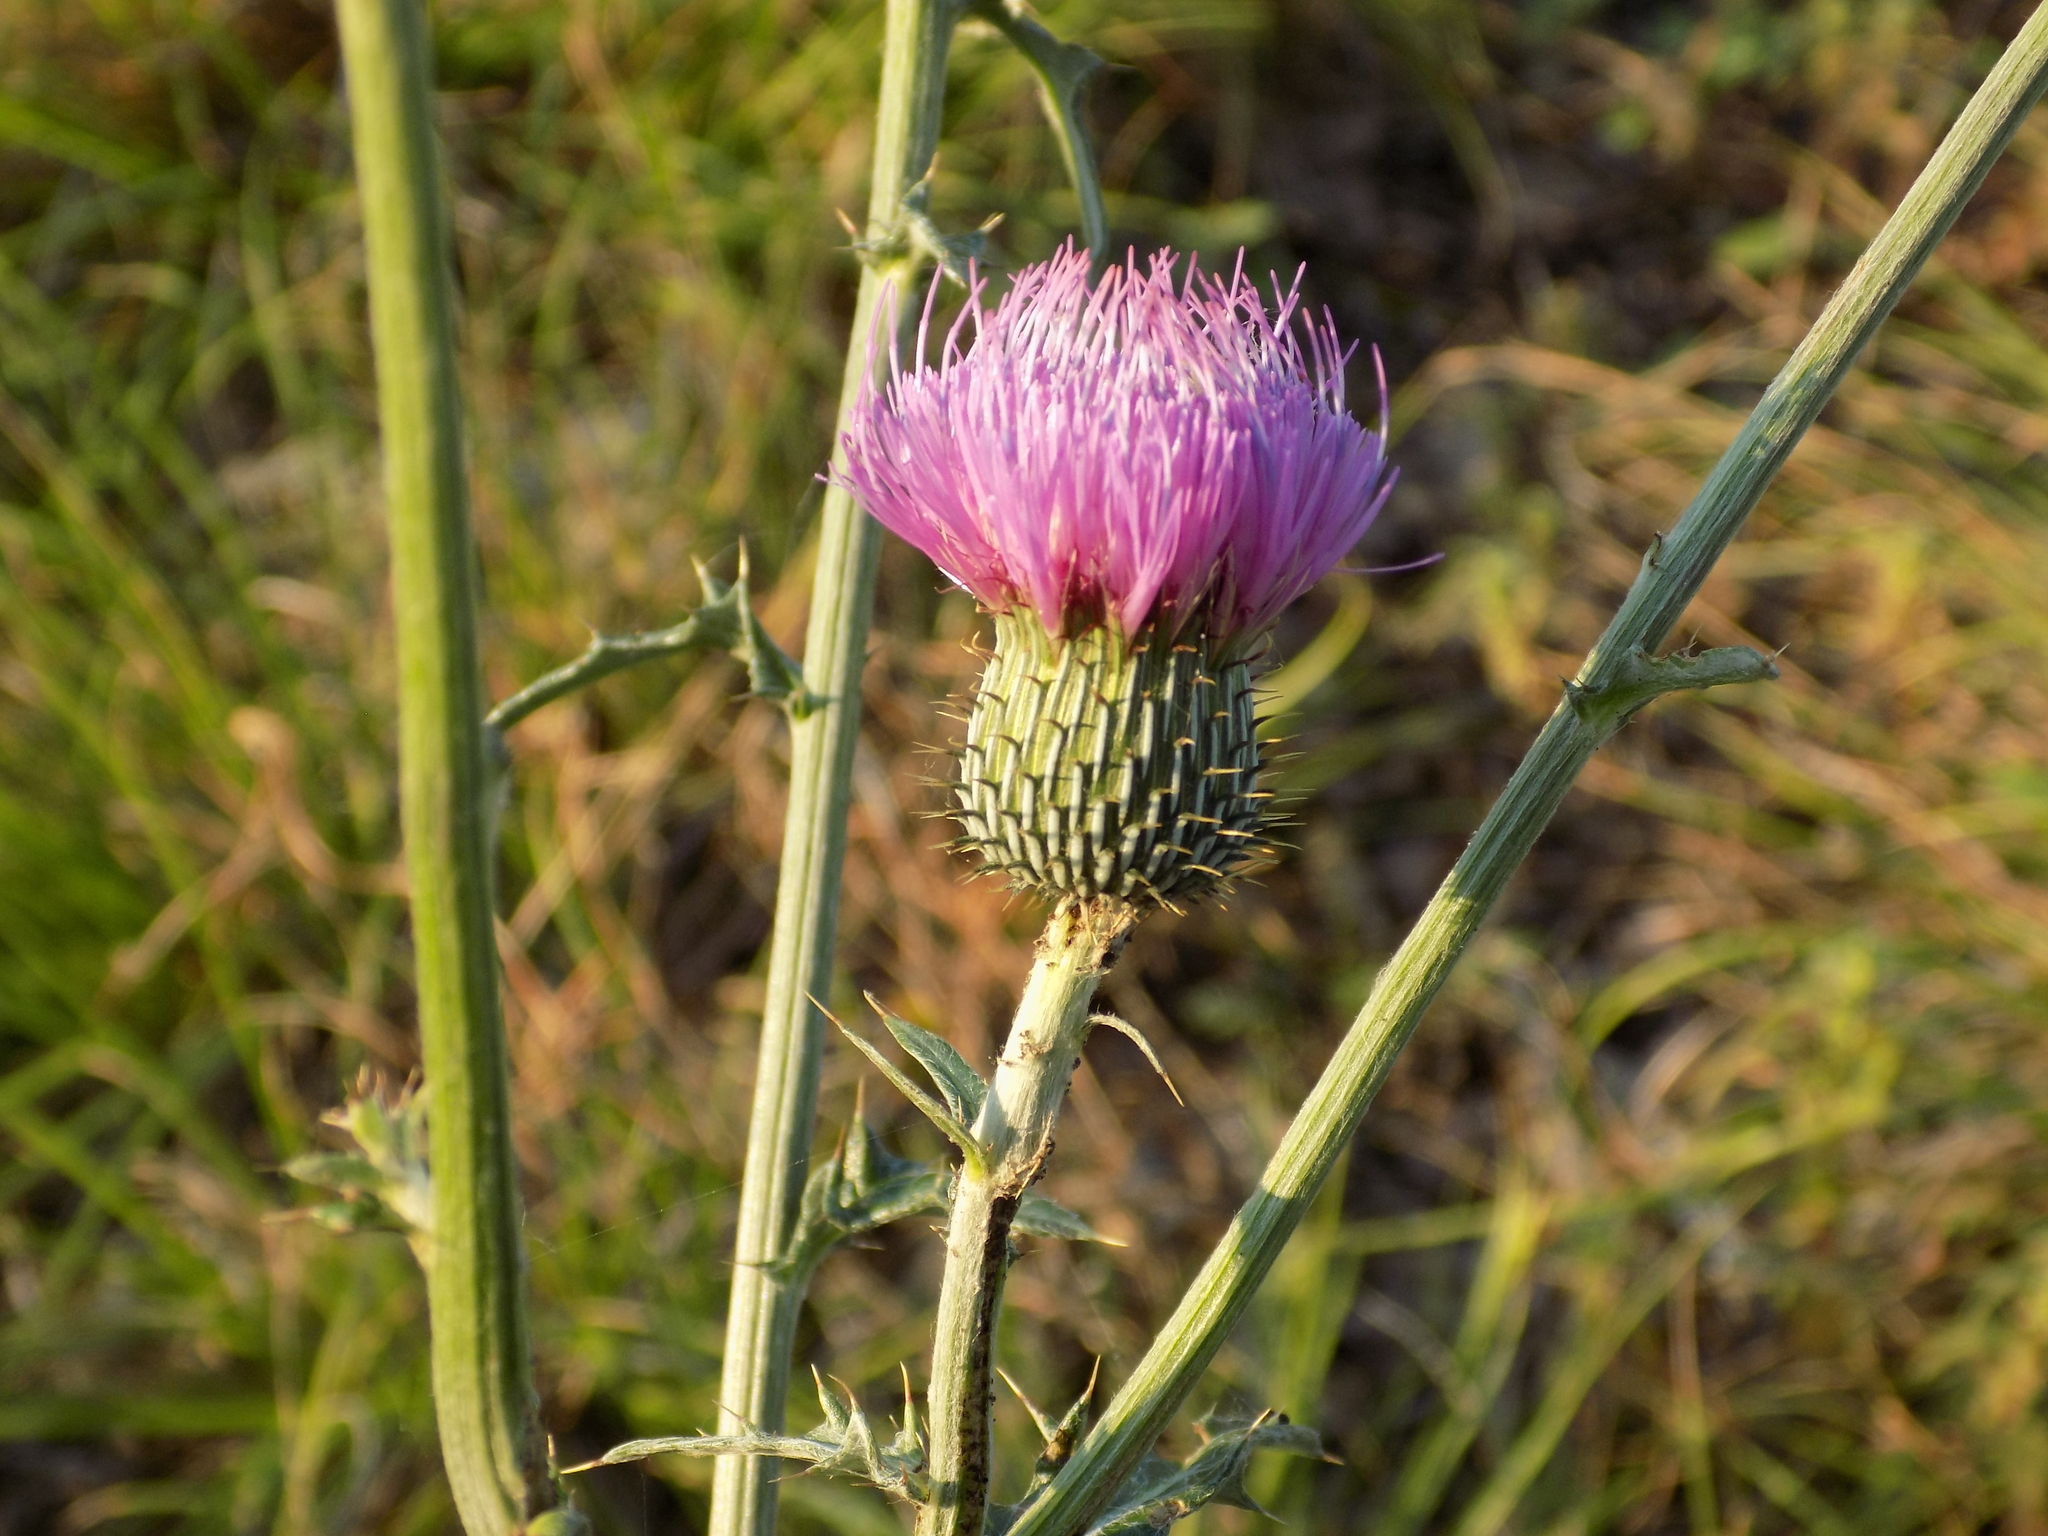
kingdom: Plantae
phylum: Tracheophyta
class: Magnoliopsida
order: Asterales
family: Asteraceae
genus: Cirsium
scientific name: Cirsium texanum
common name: Texas purple thistle
